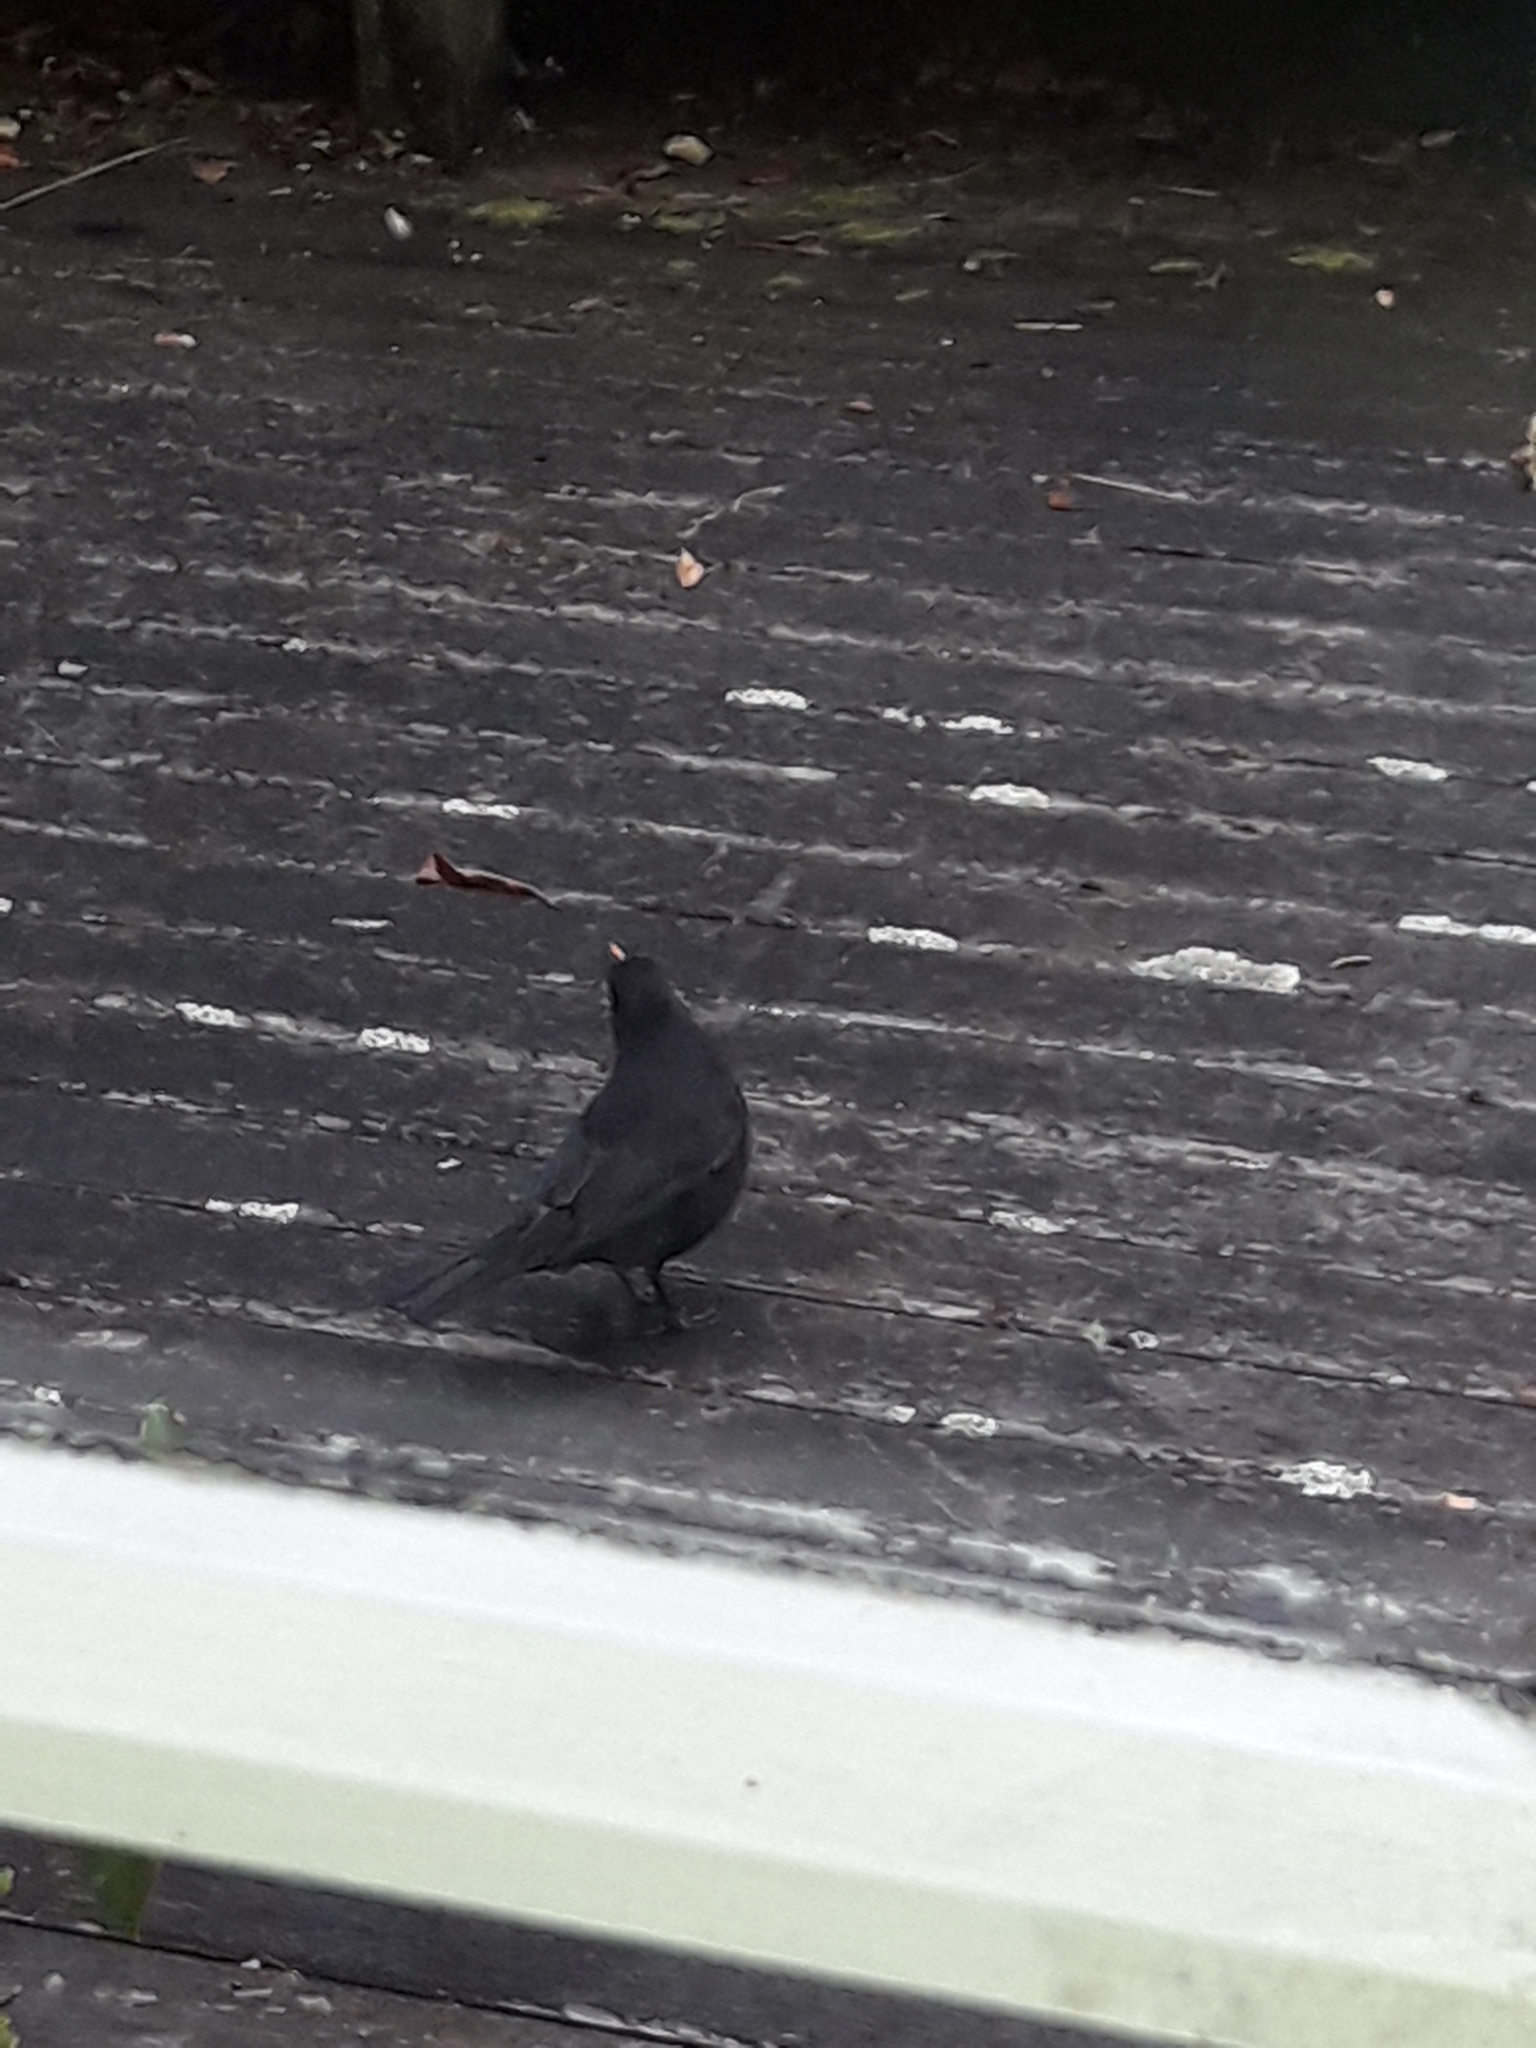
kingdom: Animalia
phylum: Chordata
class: Aves
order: Passeriformes
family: Turdidae
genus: Turdus
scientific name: Turdus merula
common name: Common blackbird
